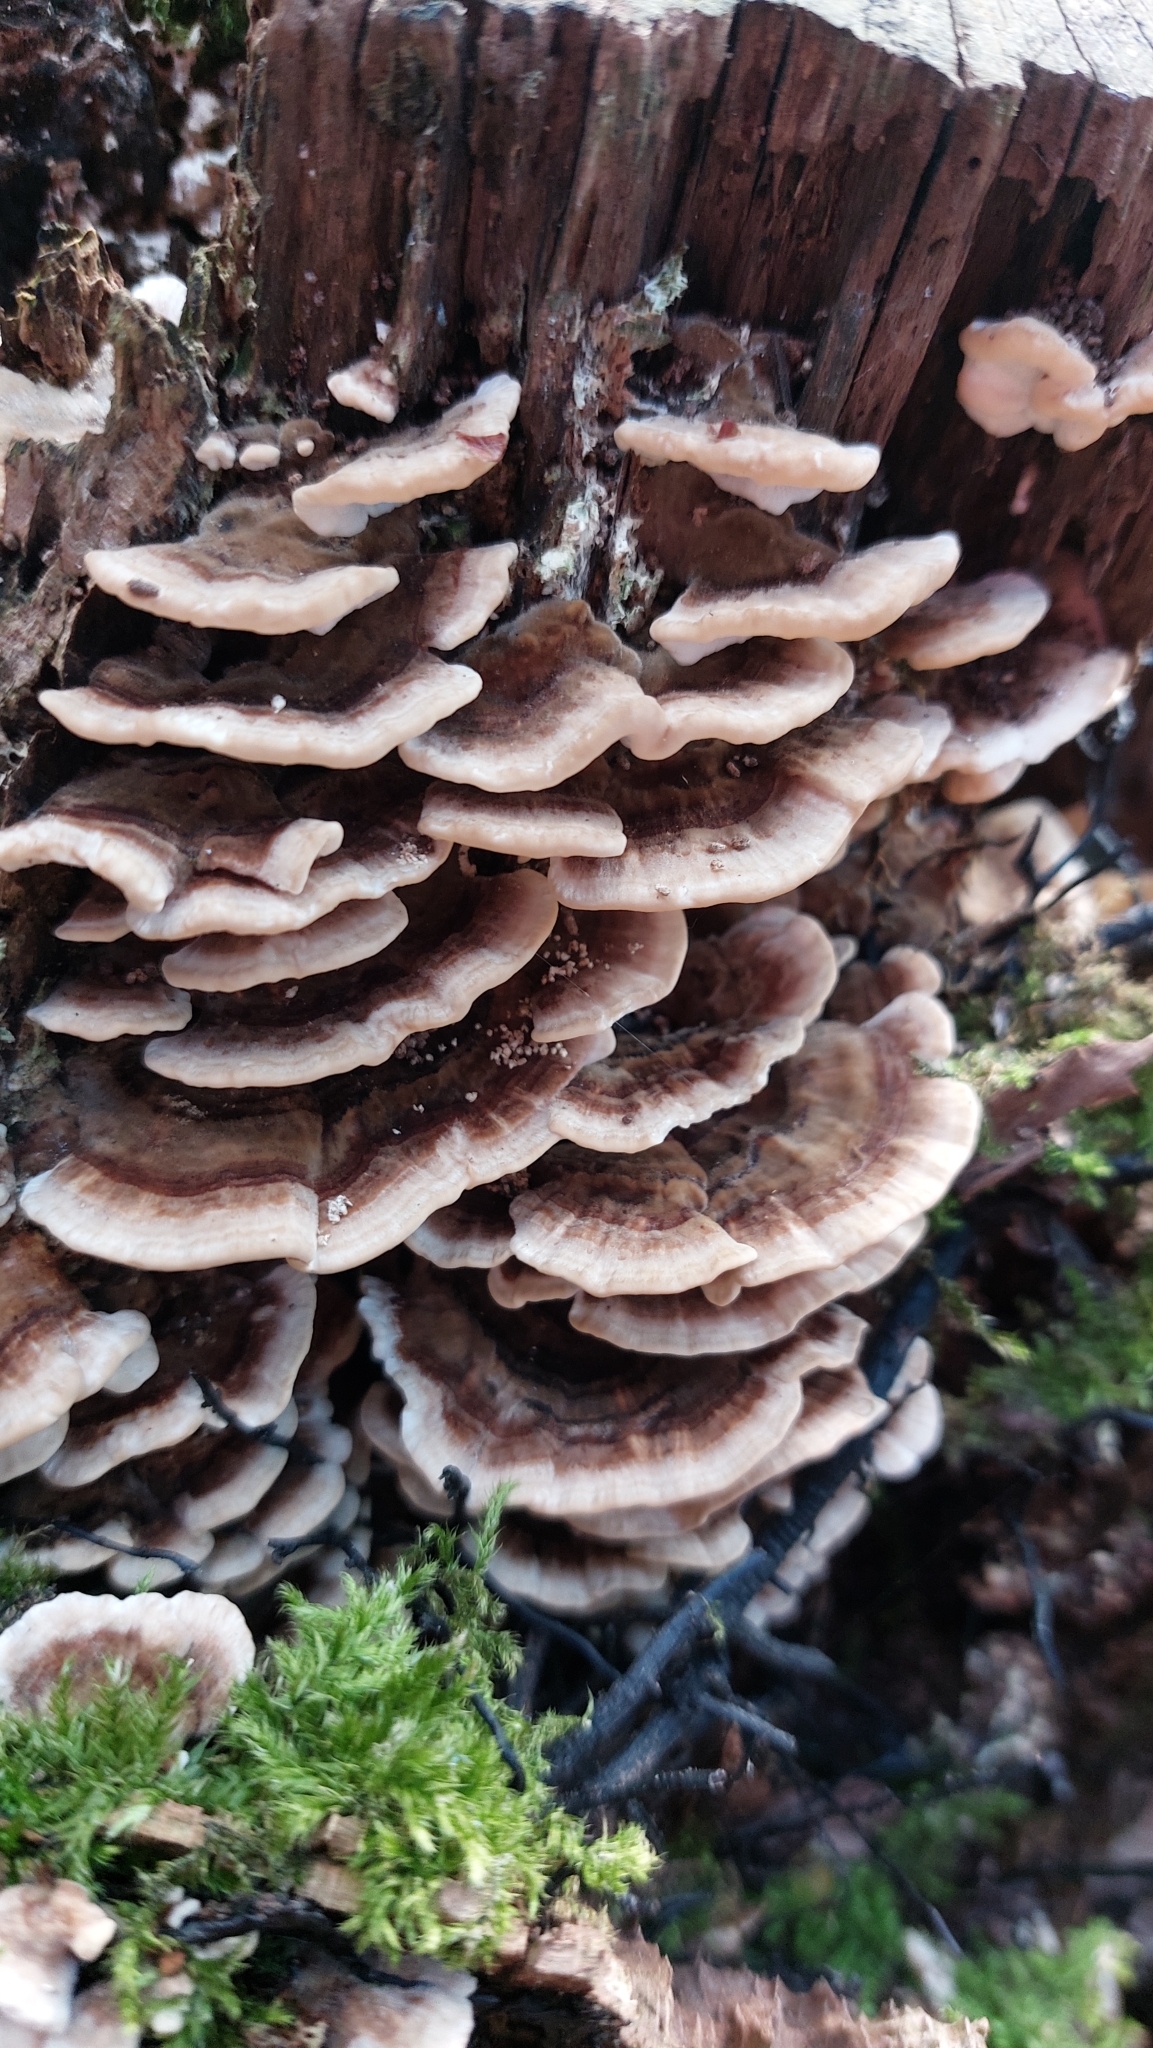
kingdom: Fungi
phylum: Basidiomycota
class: Agaricomycetes
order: Polyporales
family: Polyporaceae
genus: Trametes
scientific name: Trametes versicolor
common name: Turkeytail
